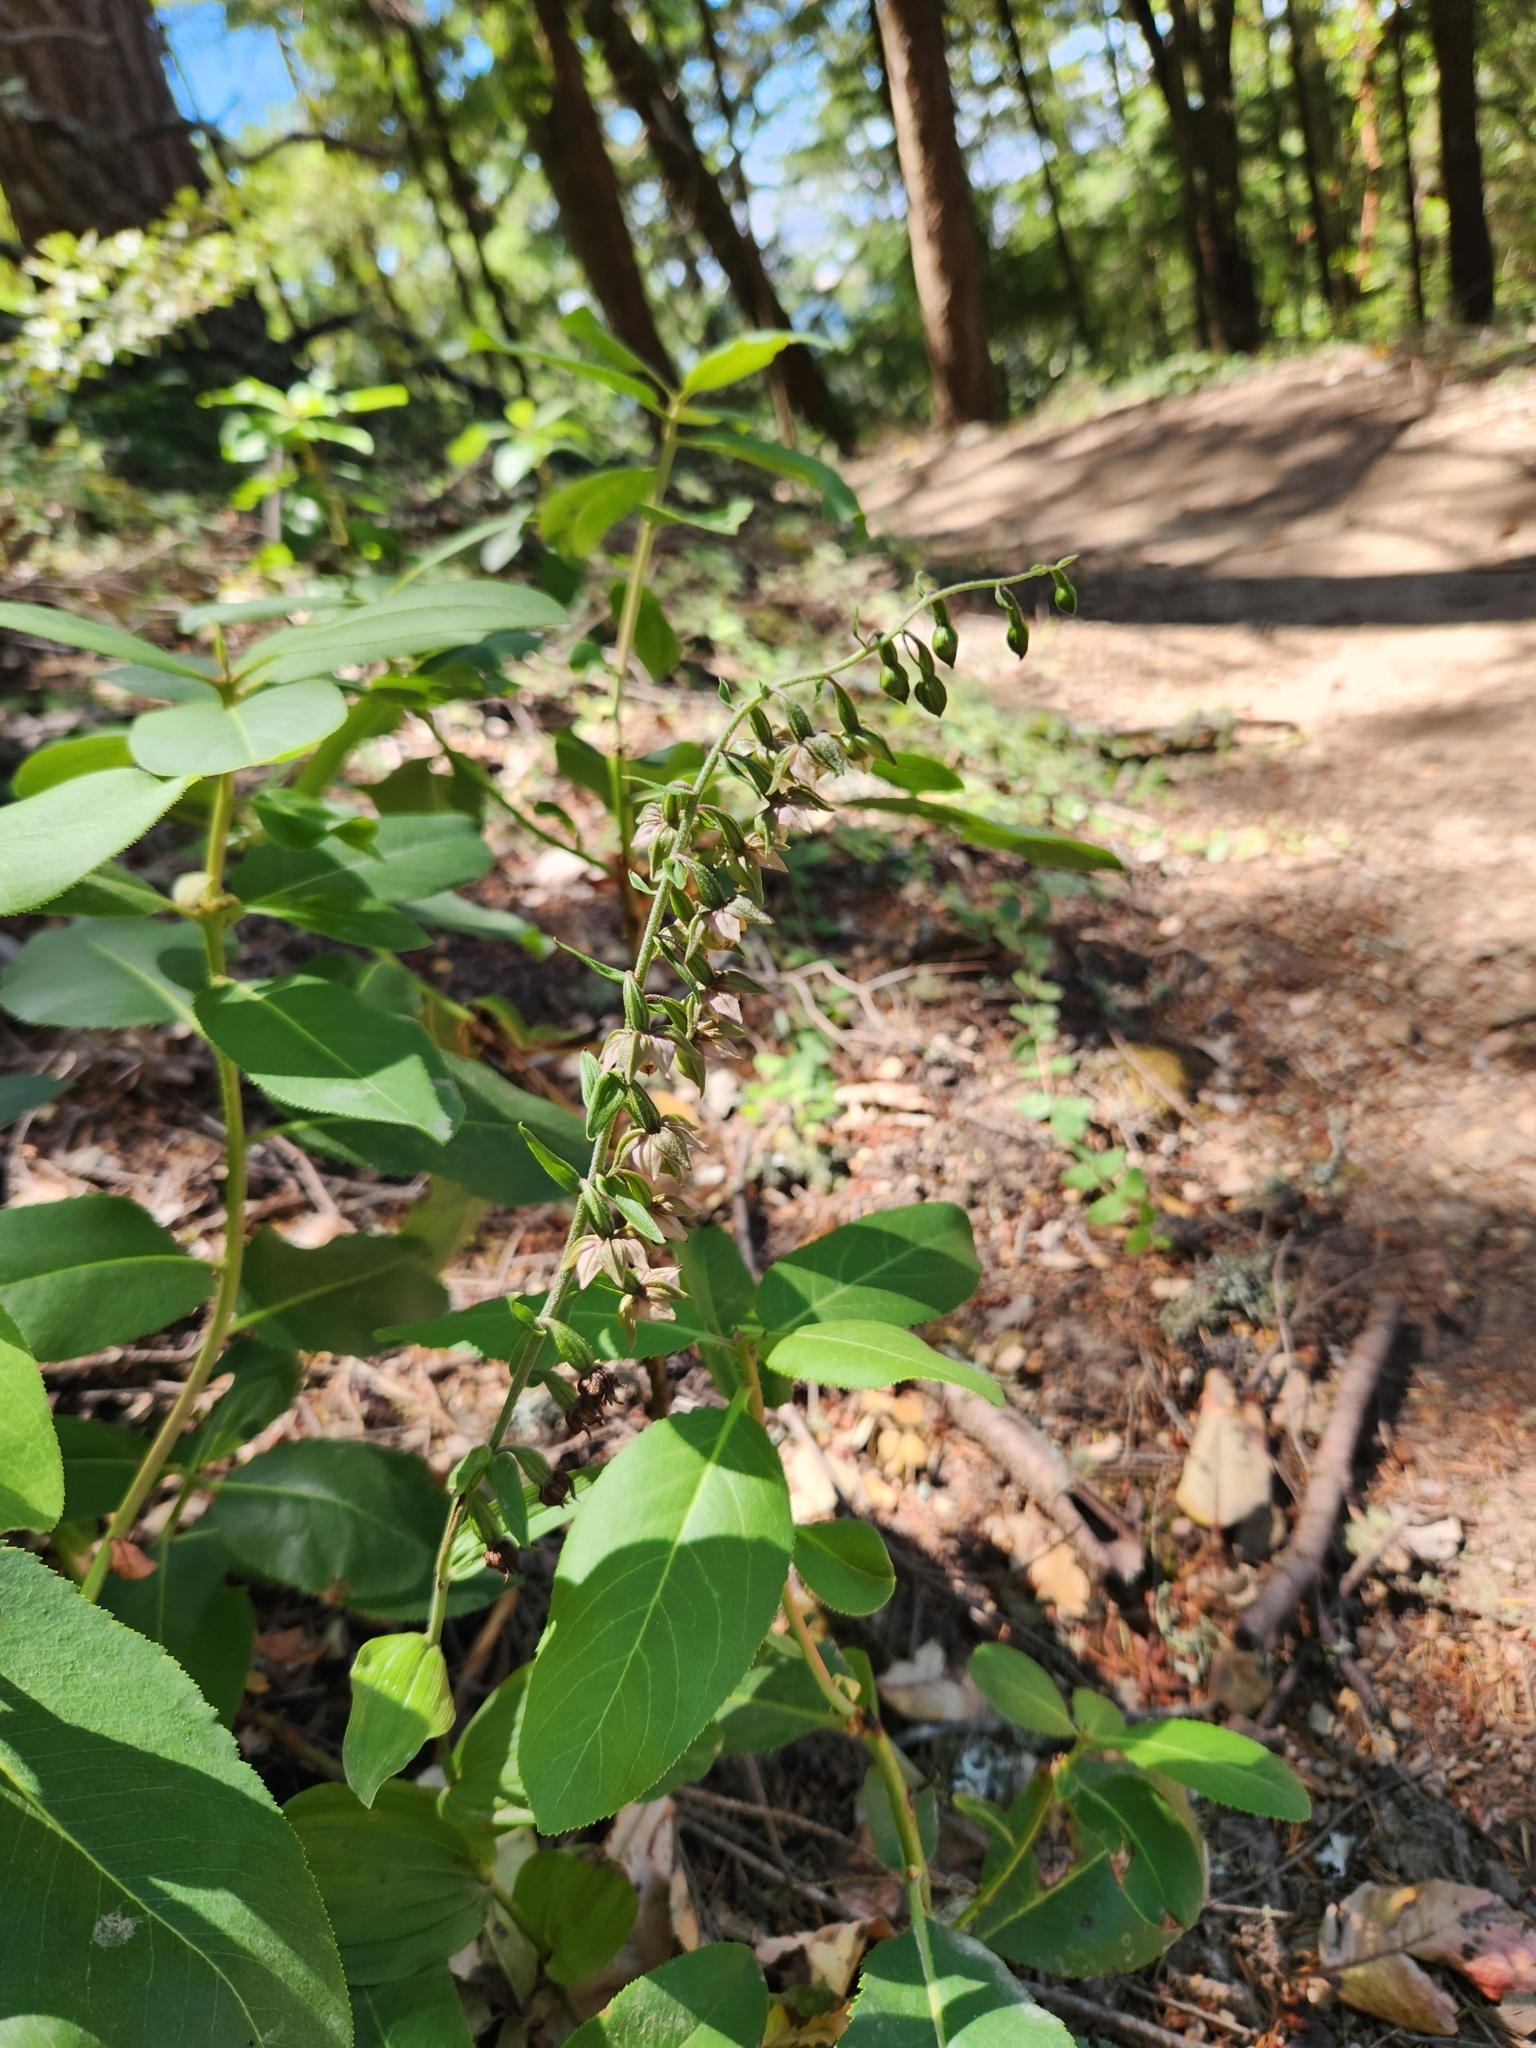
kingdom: Plantae
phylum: Tracheophyta
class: Liliopsida
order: Asparagales
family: Orchidaceae
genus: Epipactis
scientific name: Epipactis helleborine
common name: Broad-leaved helleborine
